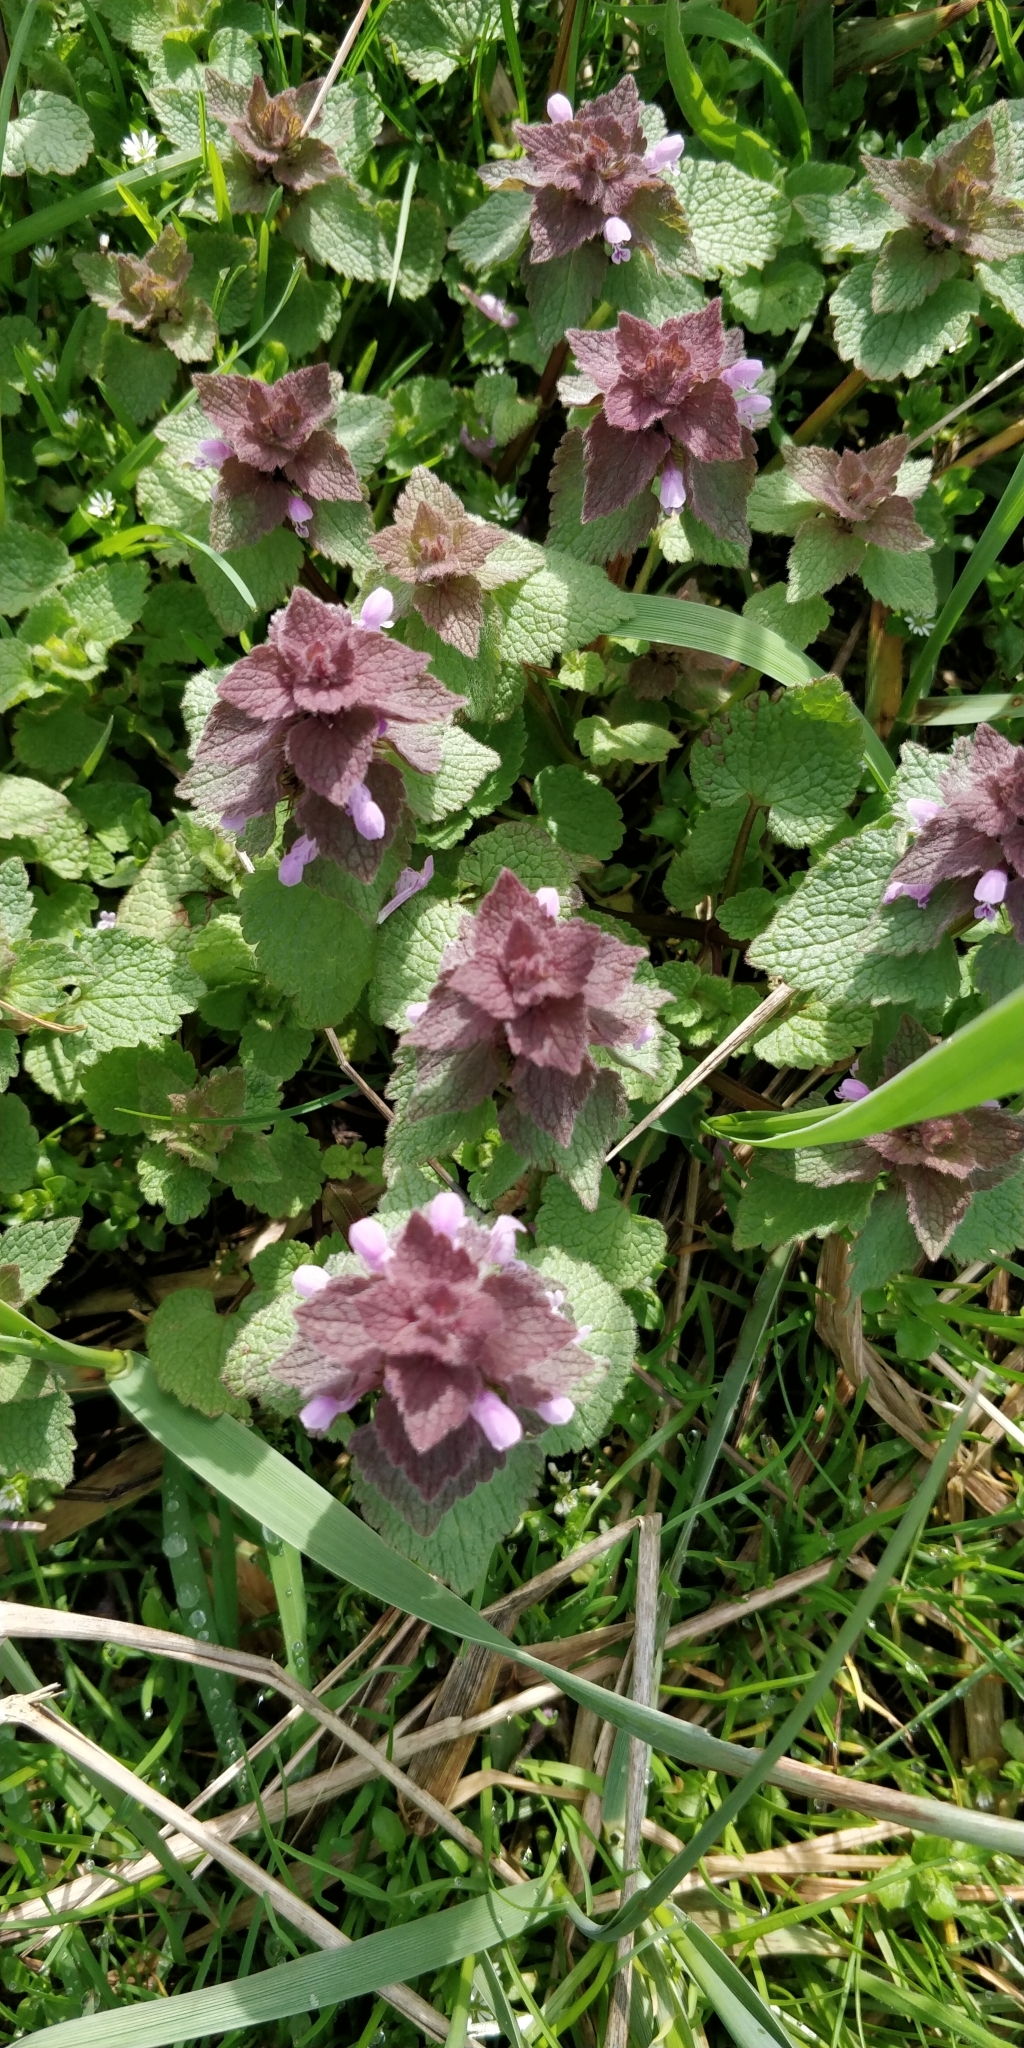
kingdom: Plantae
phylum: Tracheophyta
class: Magnoliopsida
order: Lamiales
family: Lamiaceae
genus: Lamium
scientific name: Lamium purpureum
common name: Red dead-nettle
